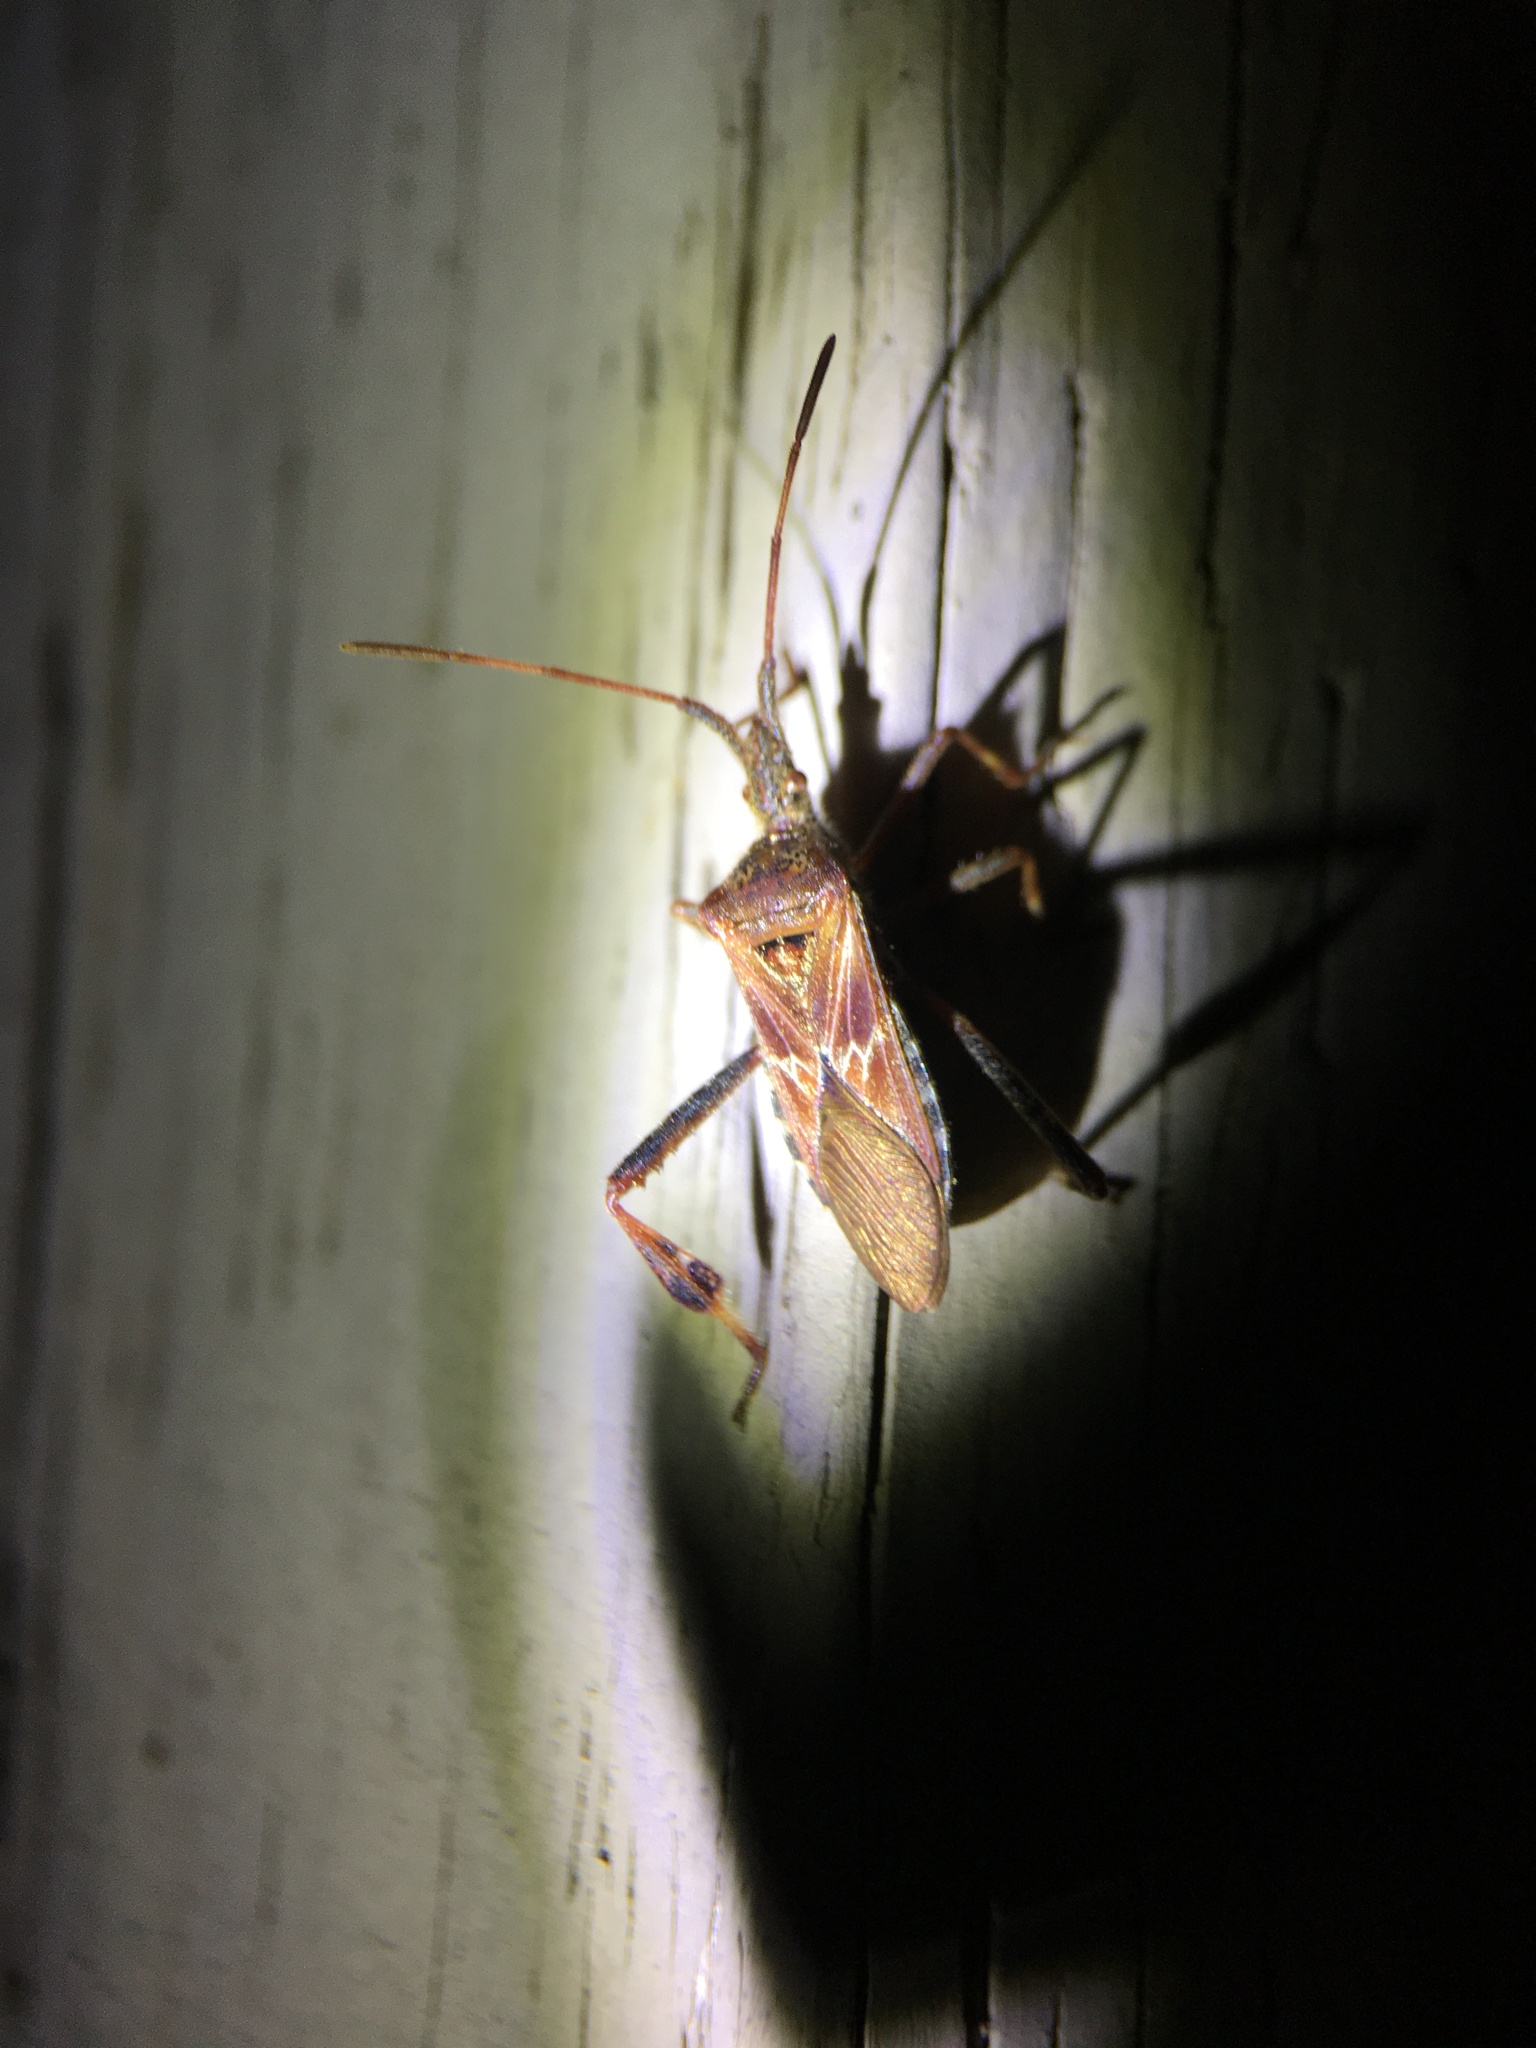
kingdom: Animalia
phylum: Arthropoda
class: Insecta
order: Hemiptera
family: Coreidae
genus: Leptoglossus
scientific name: Leptoglossus occidentalis
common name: Western conifer-seed bug
